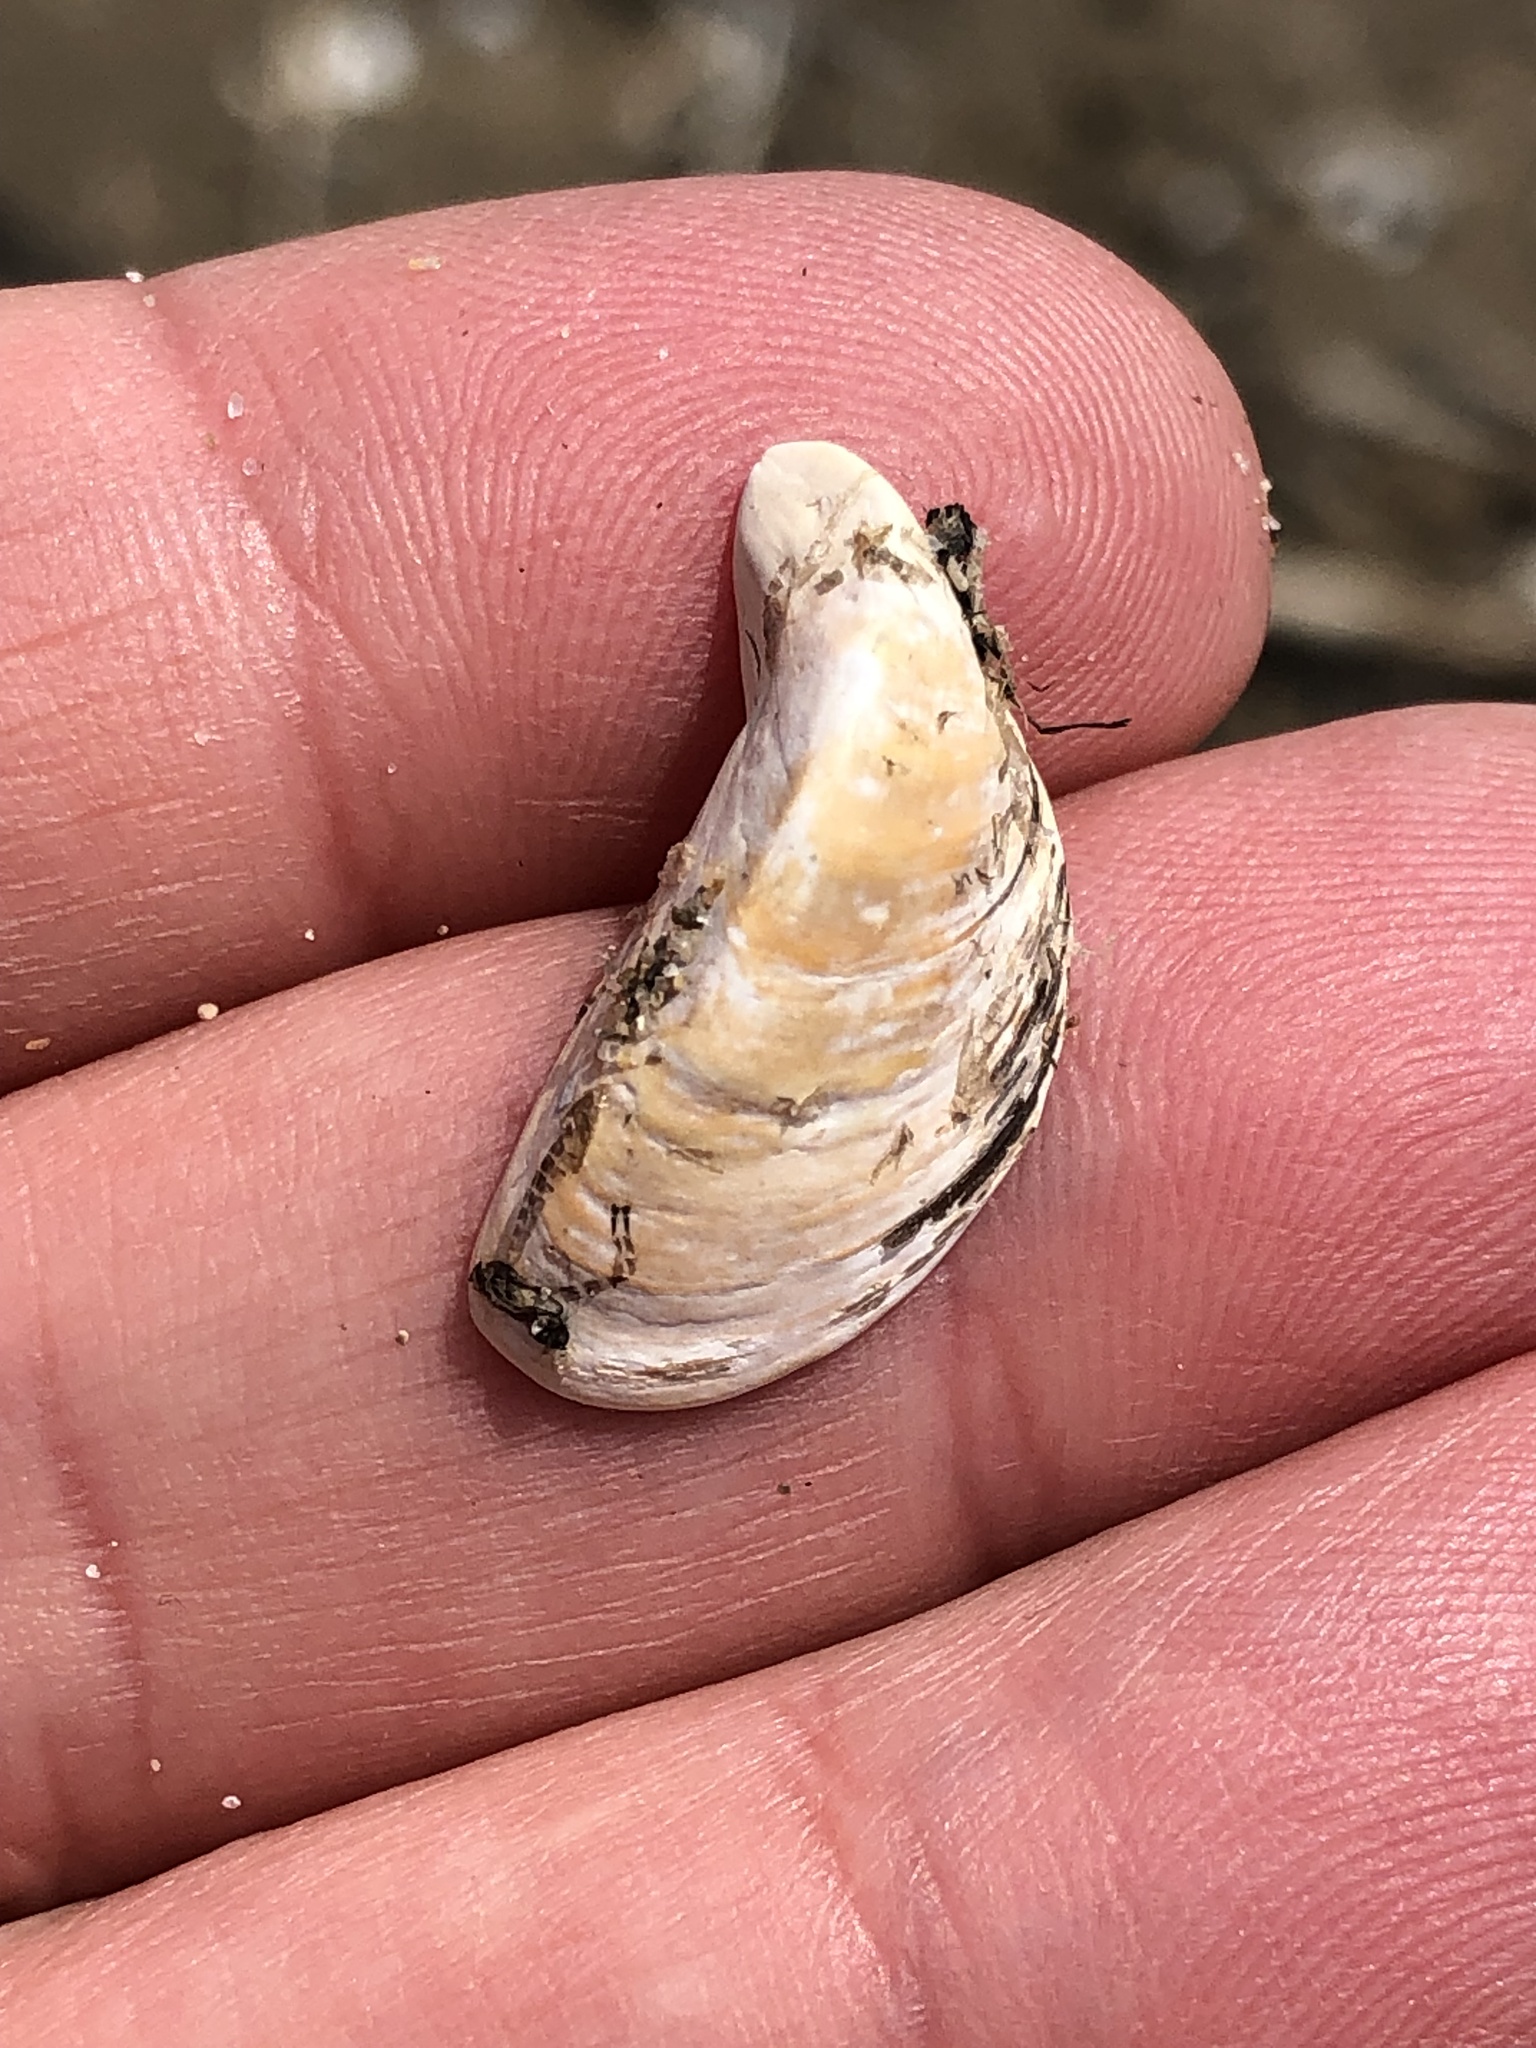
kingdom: Animalia
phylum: Mollusca
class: Bivalvia
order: Myida
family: Dreissenidae
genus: Dreissena
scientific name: Dreissena polymorpha
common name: Zebra mussel
